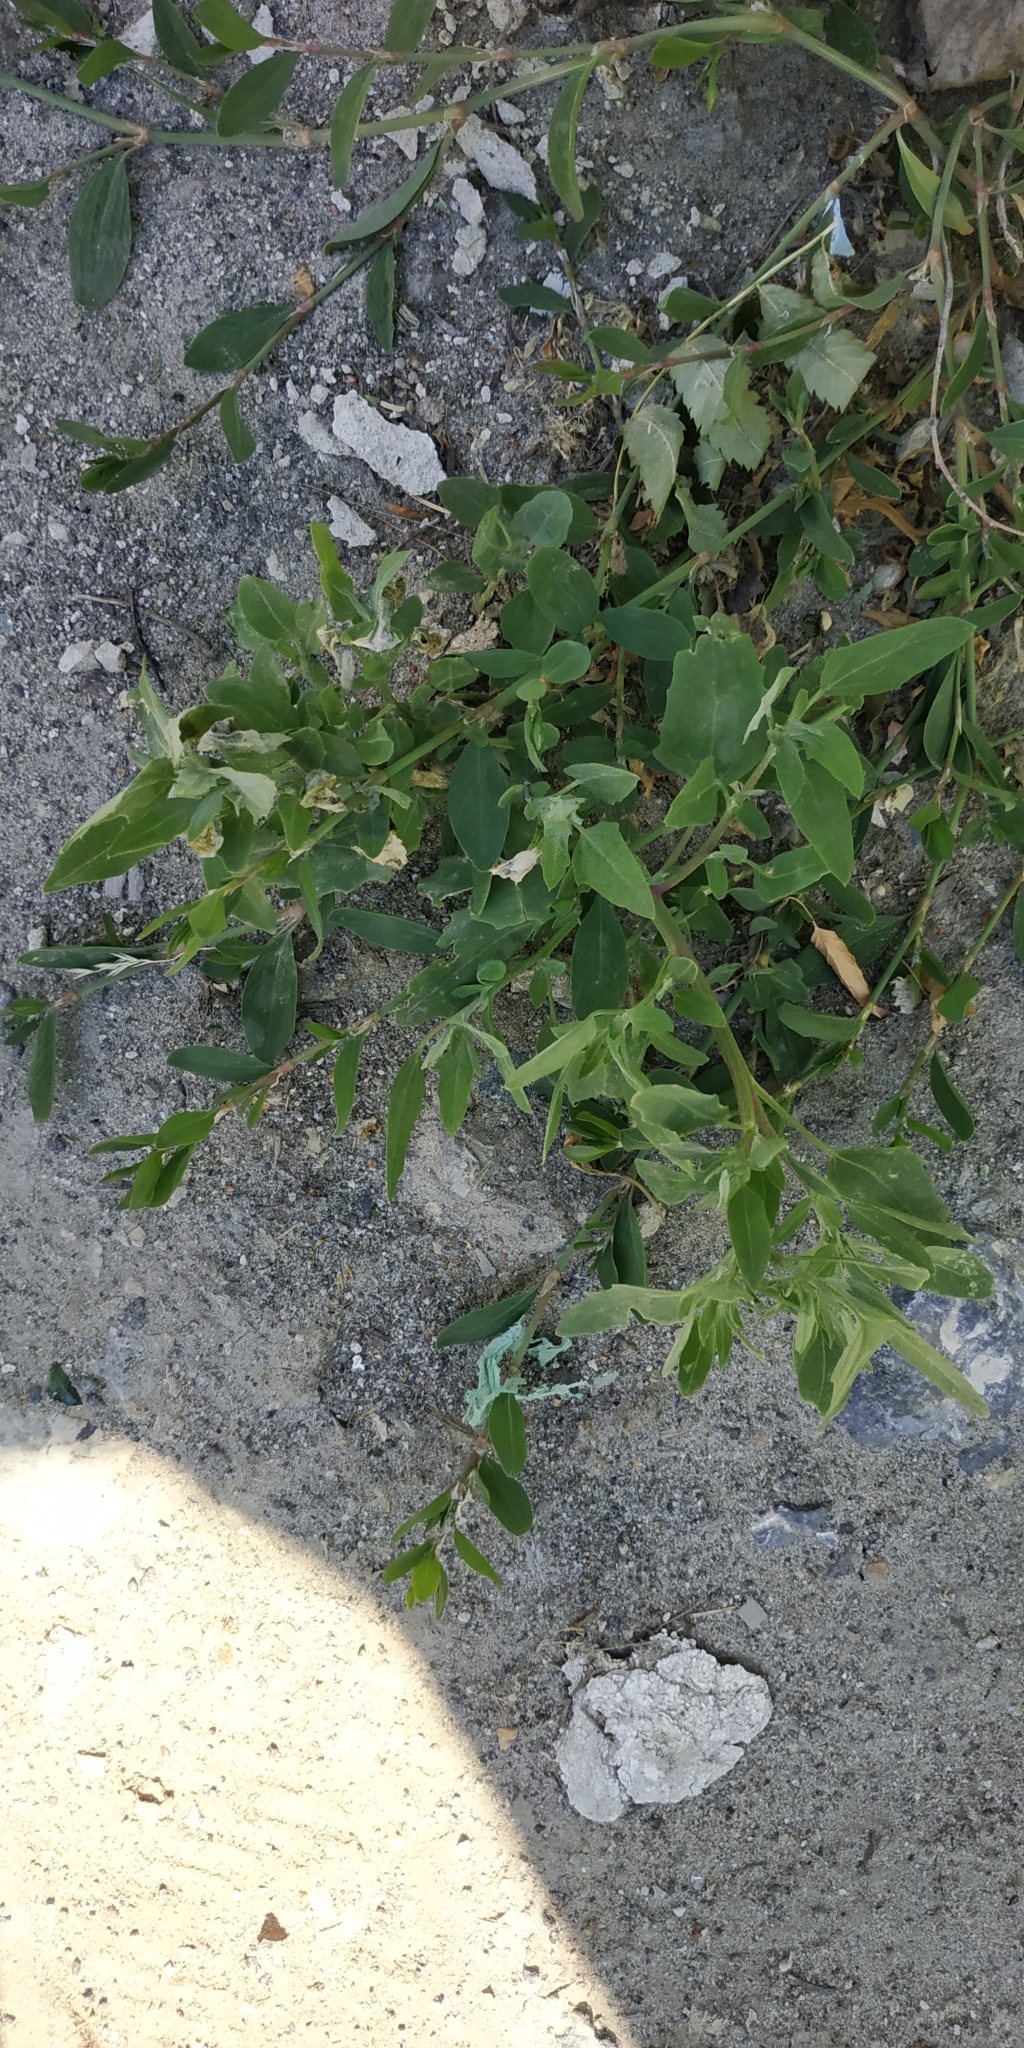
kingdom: Plantae
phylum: Tracheophyta
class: Magnoliopsida
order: Caryophyllales
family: Polygonaceae
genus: Polygonum
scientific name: Polygonum aviculare
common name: Prostrate knotweed
